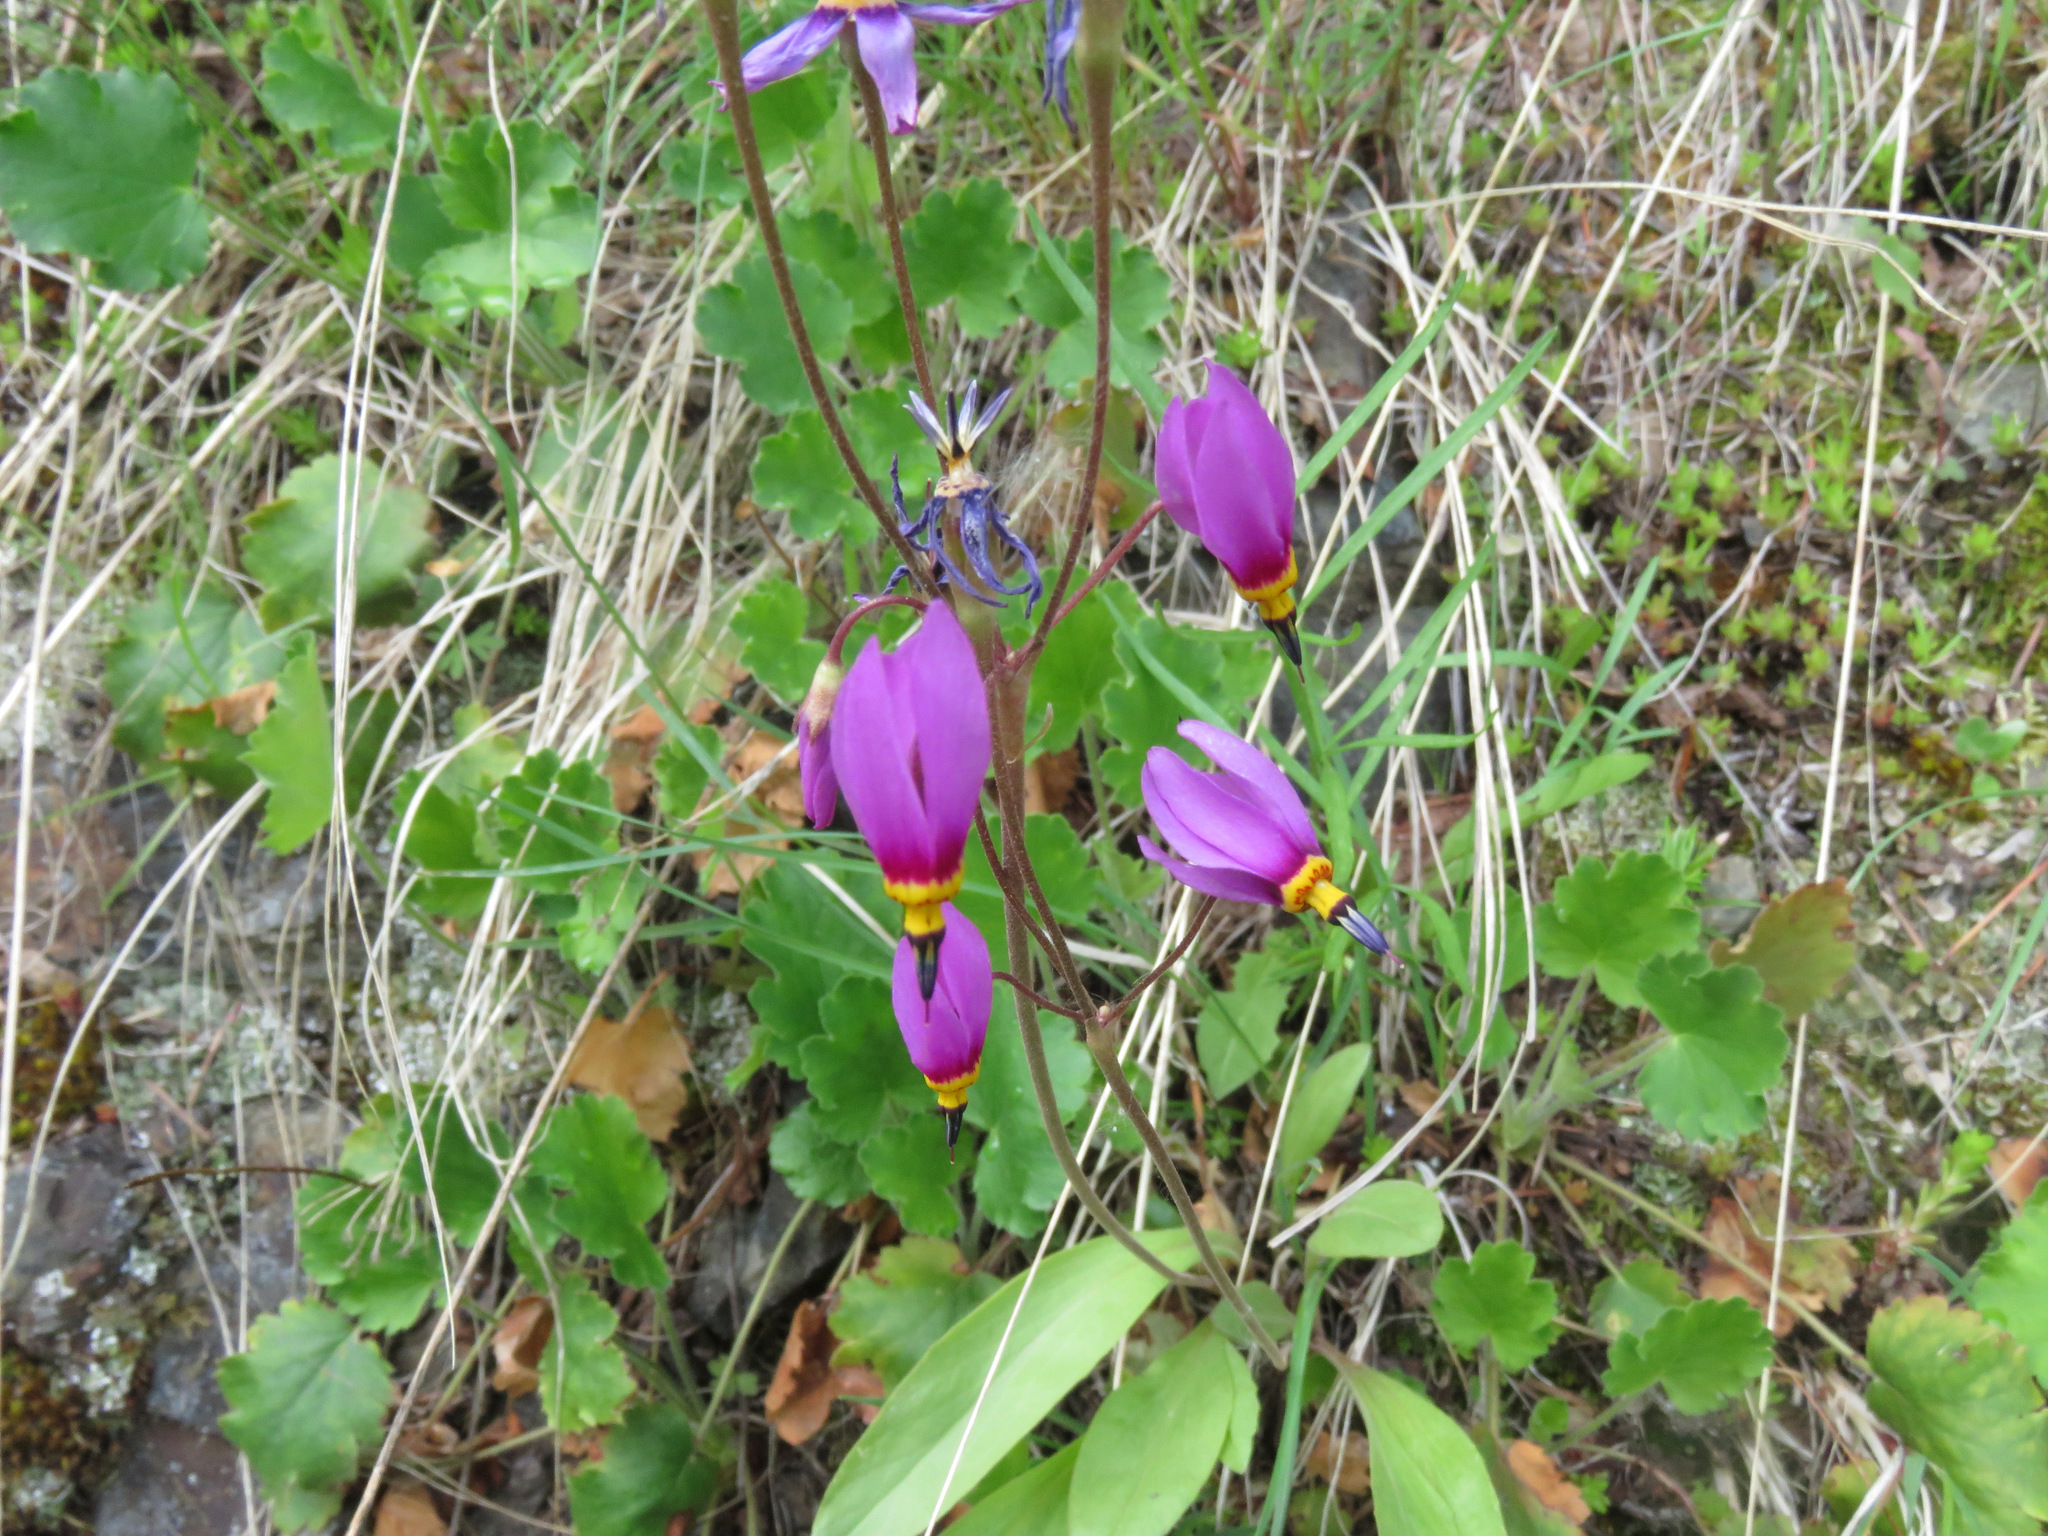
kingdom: Plantae
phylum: Tracheophyta
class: Magnoliopsida
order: Ericales
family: Primulaceae
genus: Dodecatheon
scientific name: Dodecatheon pulchellum
